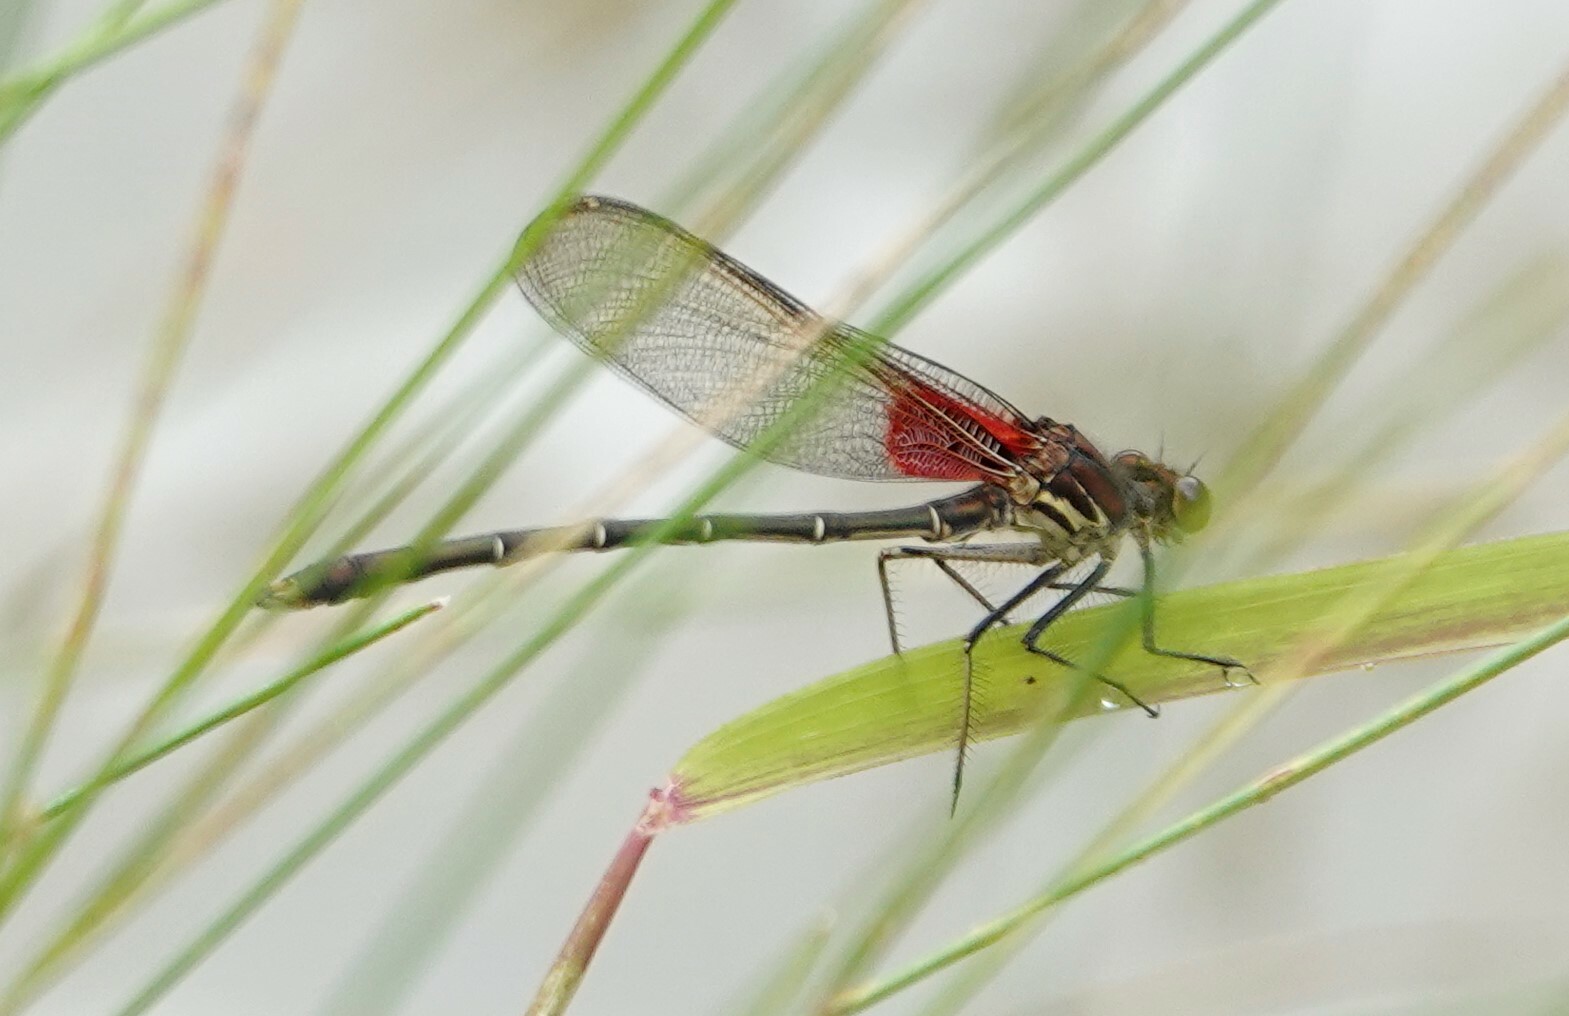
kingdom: Animalia
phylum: Arthropoda
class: Insecta
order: Odonata
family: Calopterygidae
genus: Hetaerina
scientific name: Hetaerina americana
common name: American rubyspot
